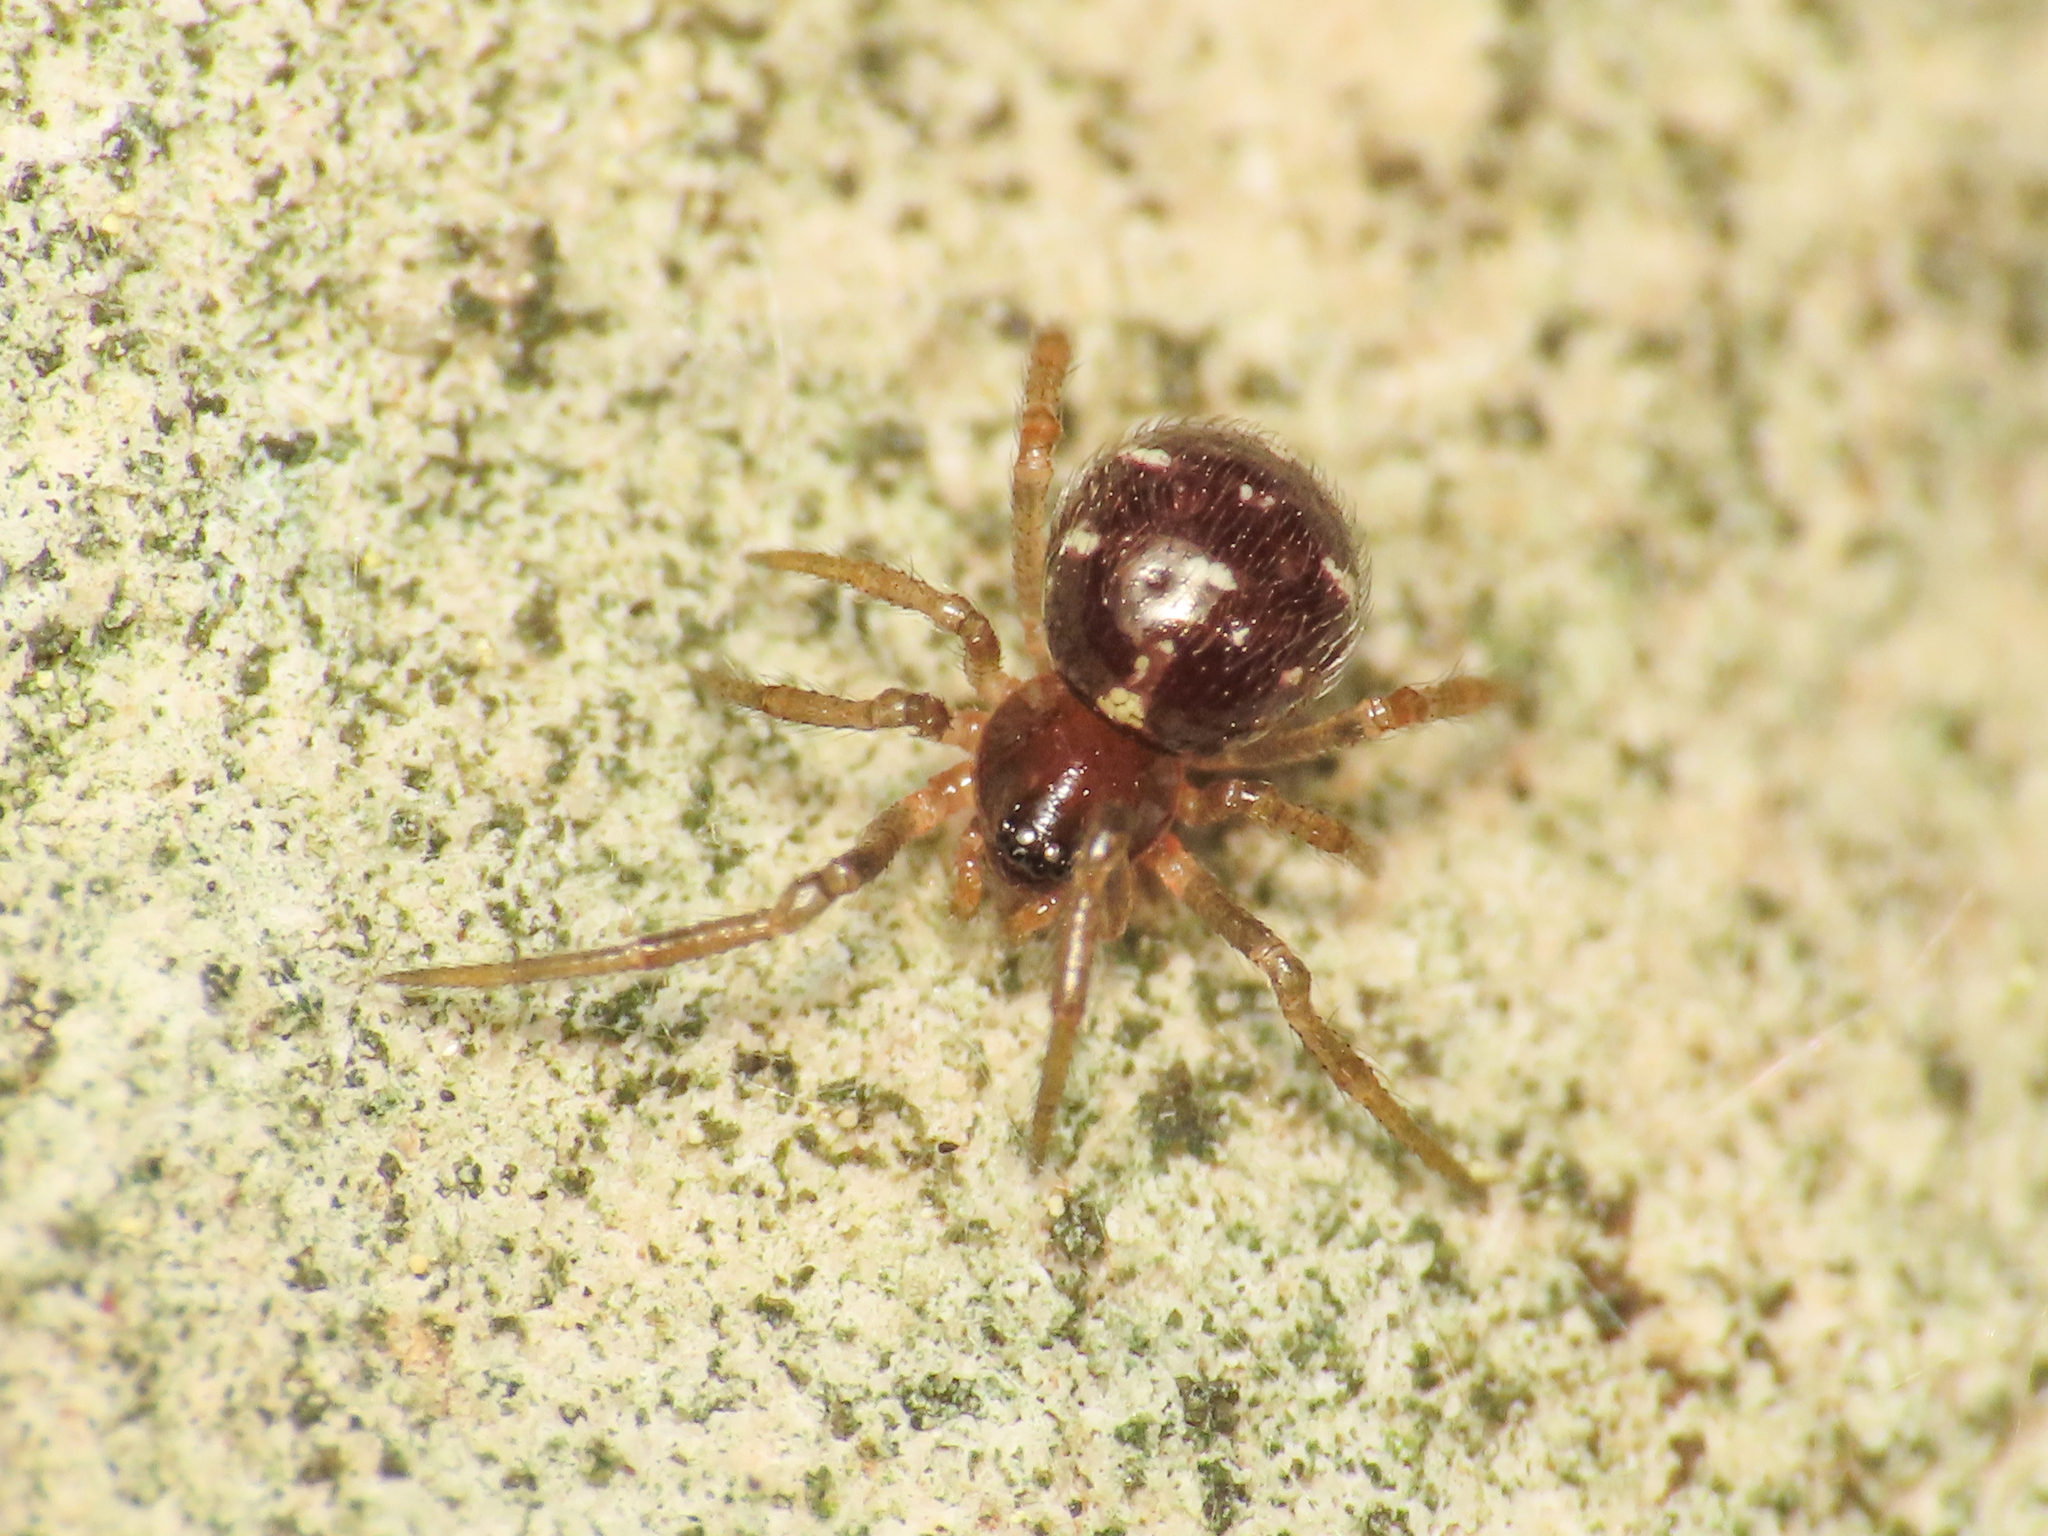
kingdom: Animalia
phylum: Arthropoda
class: Arachnida
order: Araneae
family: Theridiidae
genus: Crustulina
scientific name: Crustulina scabripes
